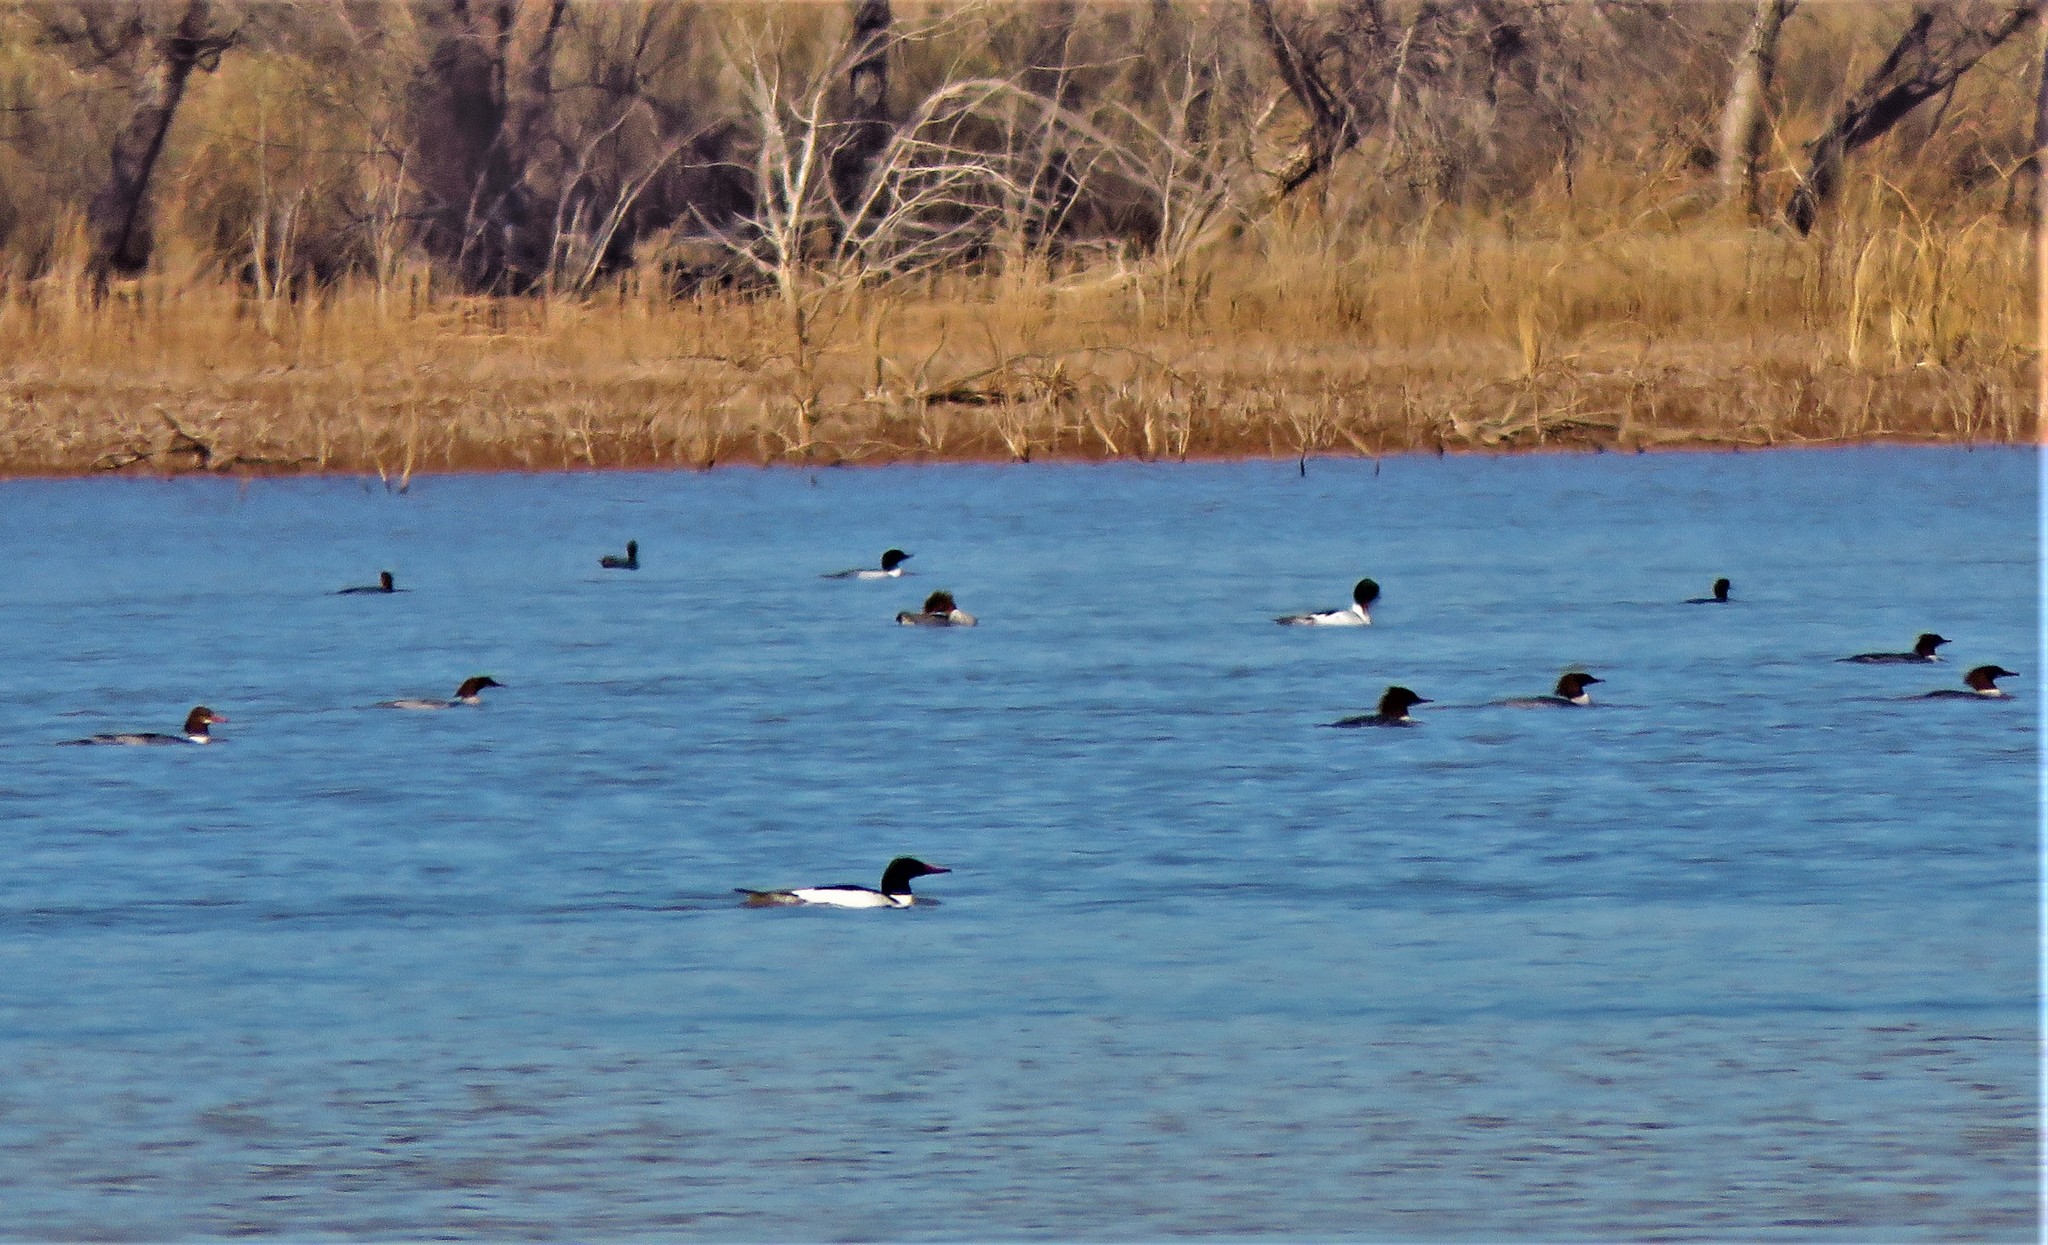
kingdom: Animalia
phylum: Chordata
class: Aves
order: Anseriformes
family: Anatidae
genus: Mergus
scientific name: Mergus merganser
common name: Common merganser
